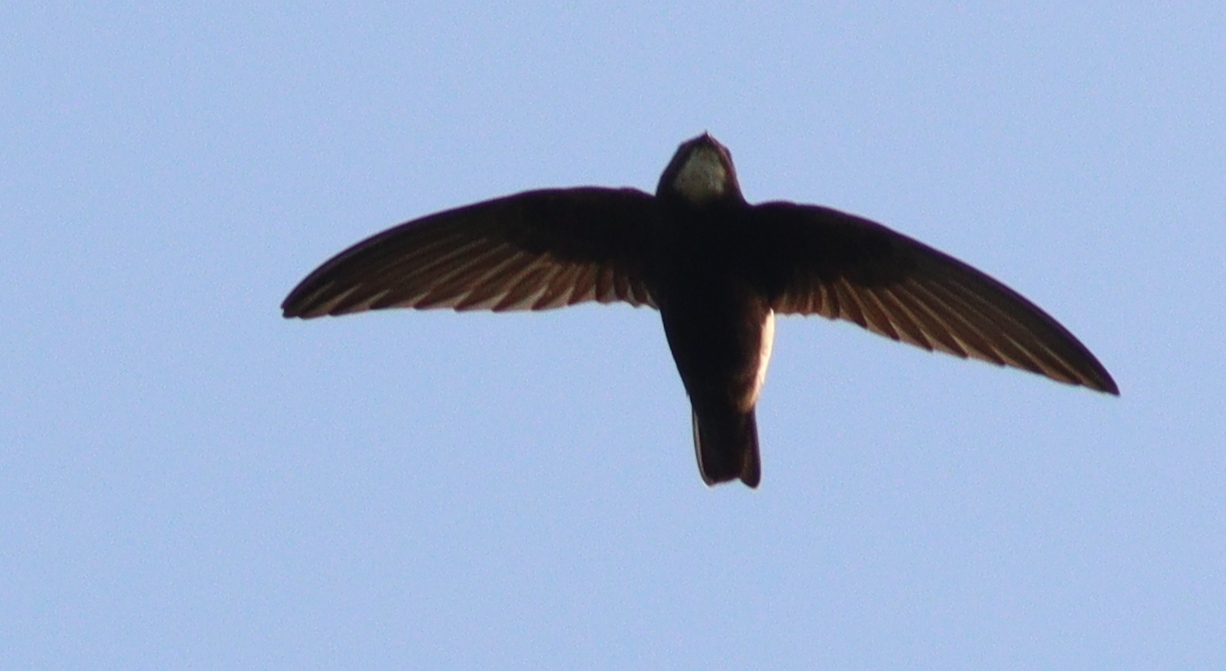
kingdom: Animalia
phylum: Chordata
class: Aves
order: Apodiformes
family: Apodidae
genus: Apus
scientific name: Apus affinis
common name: Little swift
